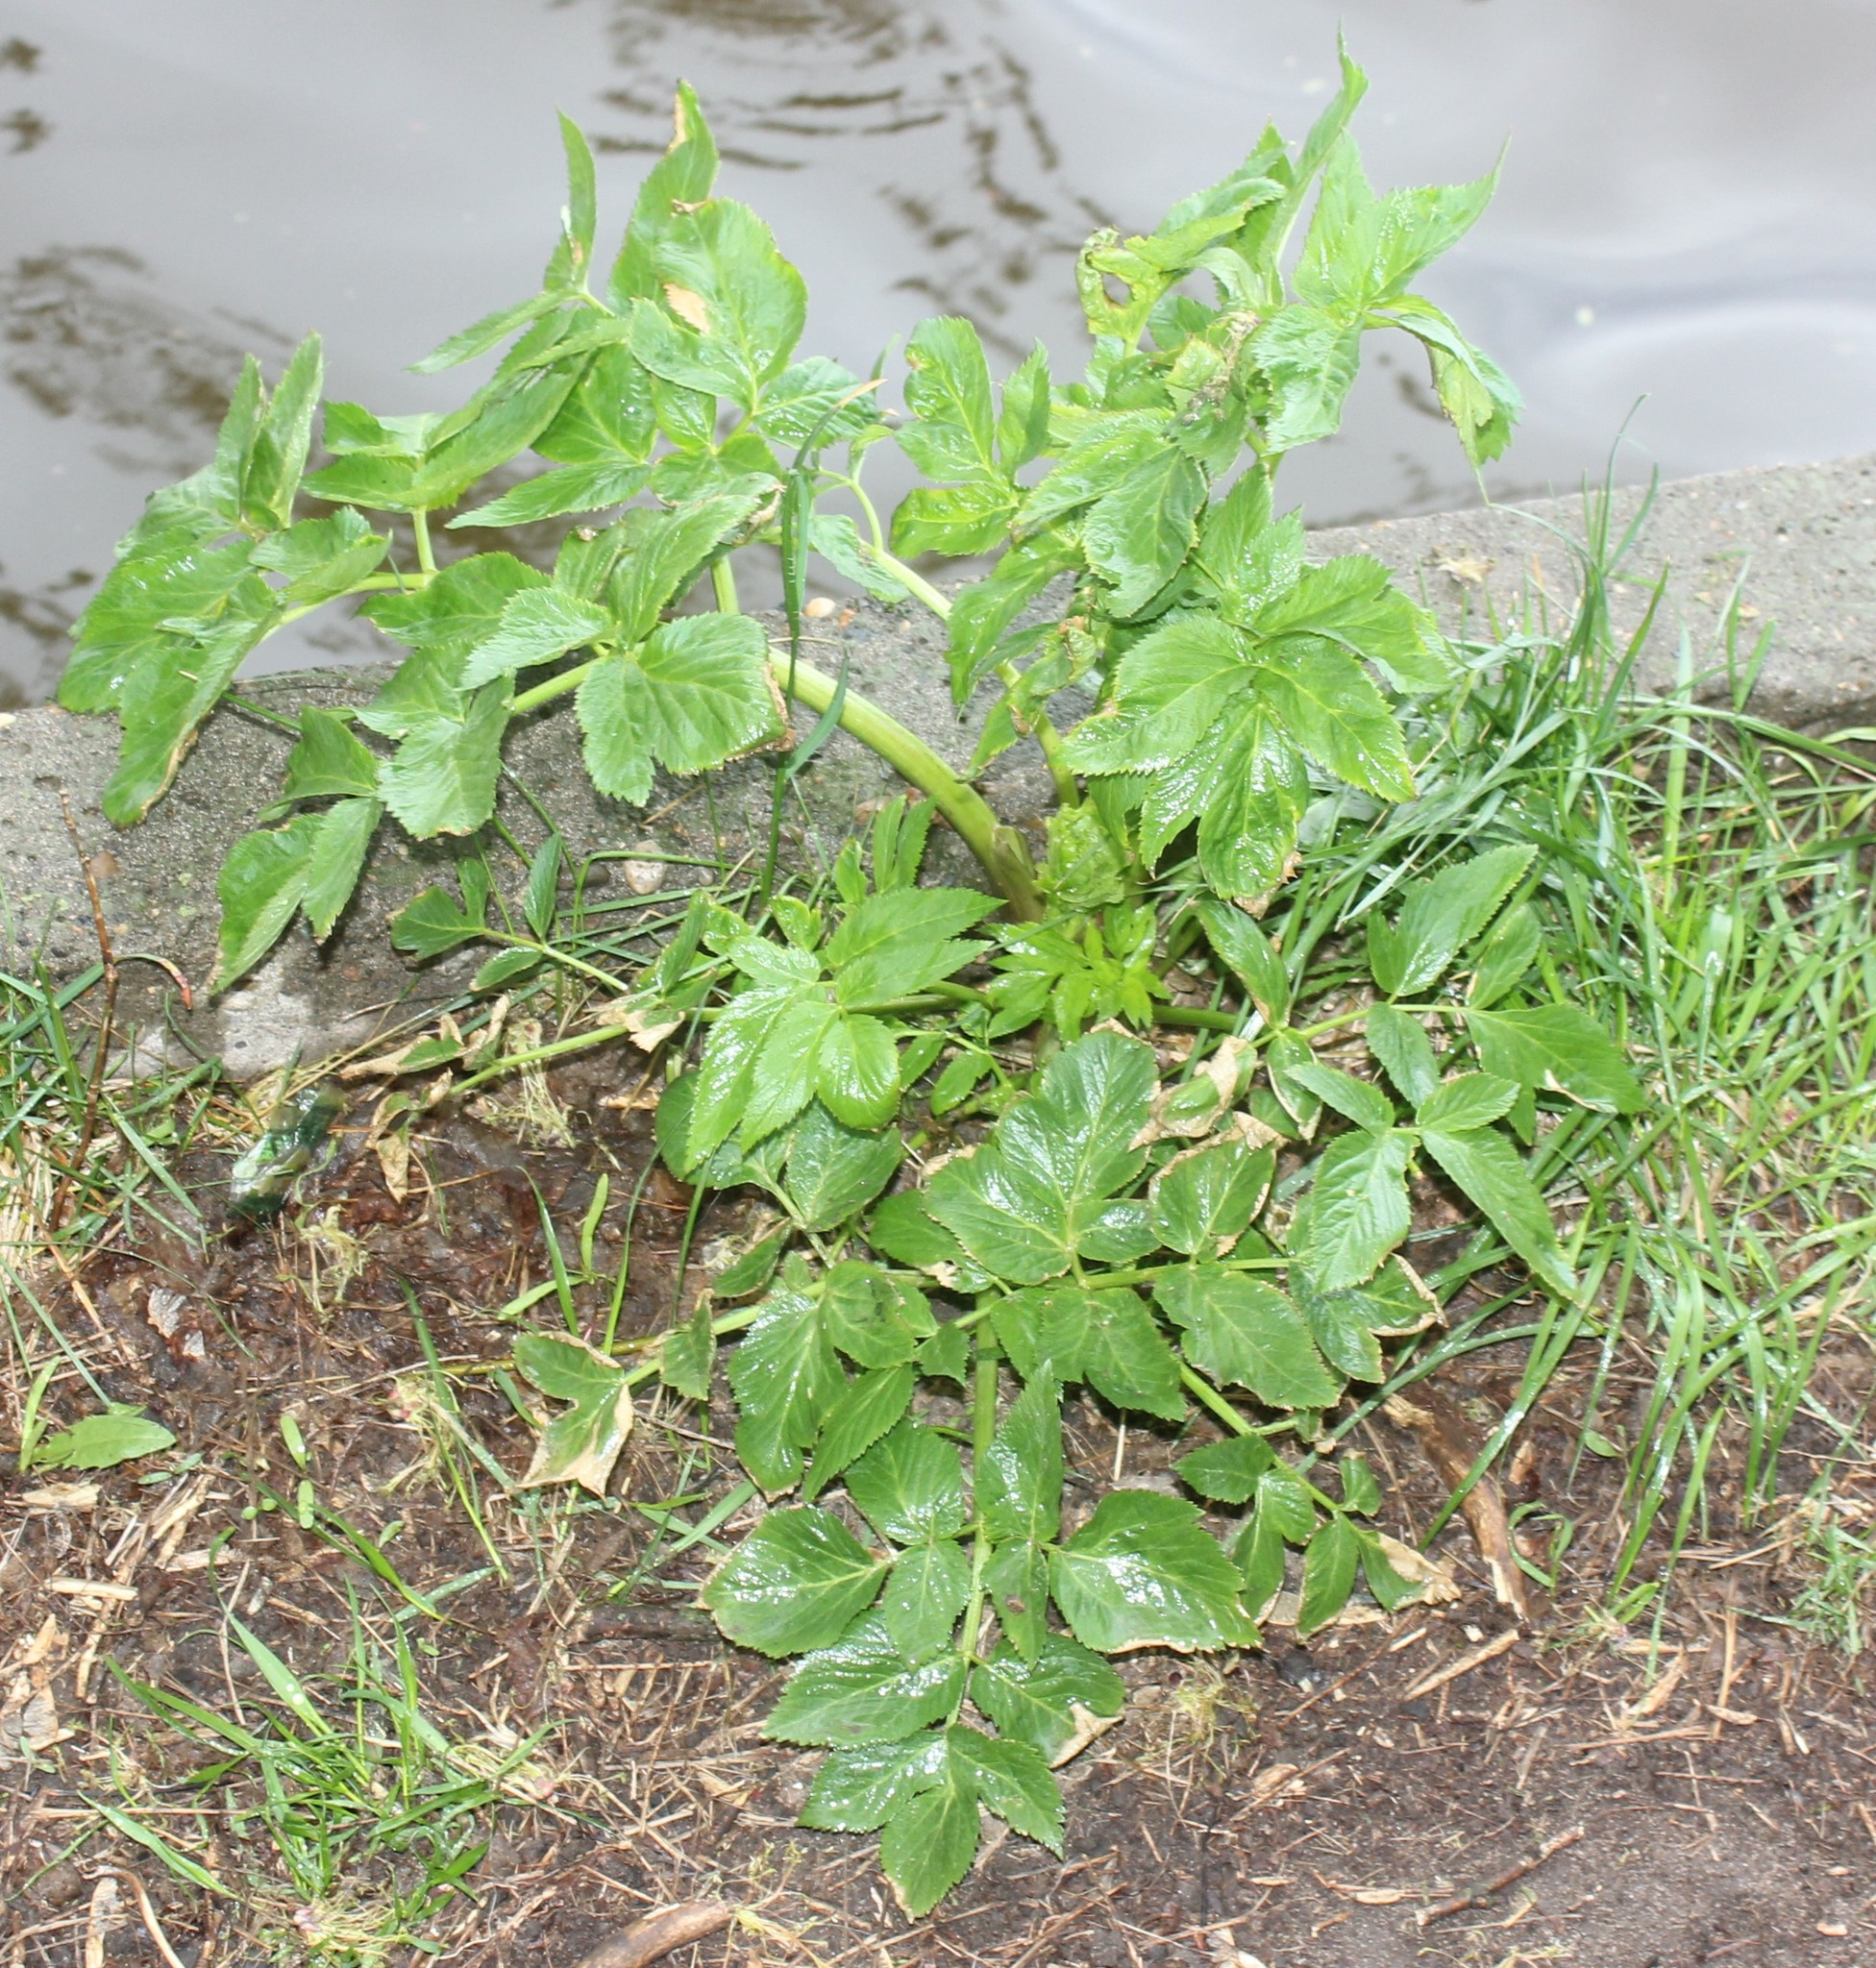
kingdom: Plantae
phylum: Tracheophyta
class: Magnoliopsida
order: Apiales
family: Apiaceae
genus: Angelica
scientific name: Angelica archangelica
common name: Garden angelica
